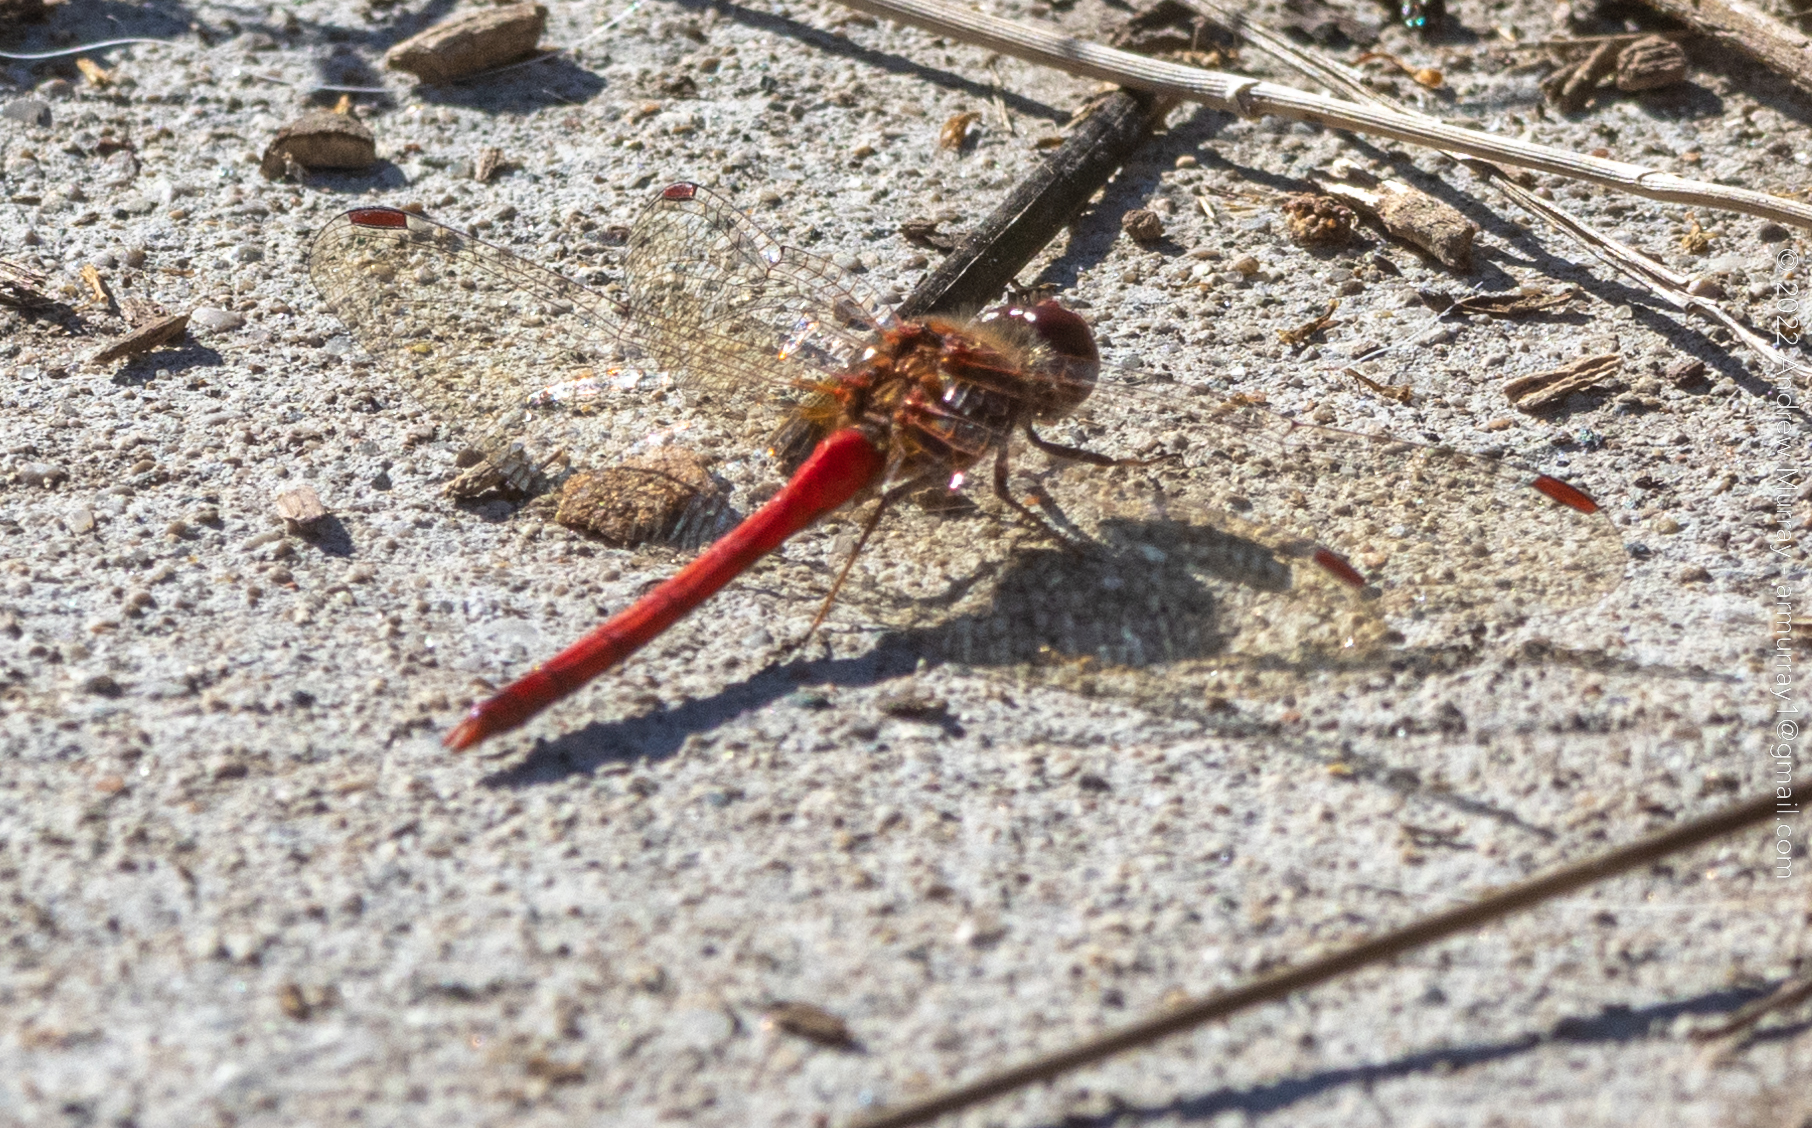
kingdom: Animalia
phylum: Arthropoda
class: Insecta
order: Odonata
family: Libellulidae
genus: Sympetrum
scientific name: Sympetrum vicinum
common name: Autumn meadowhawk
